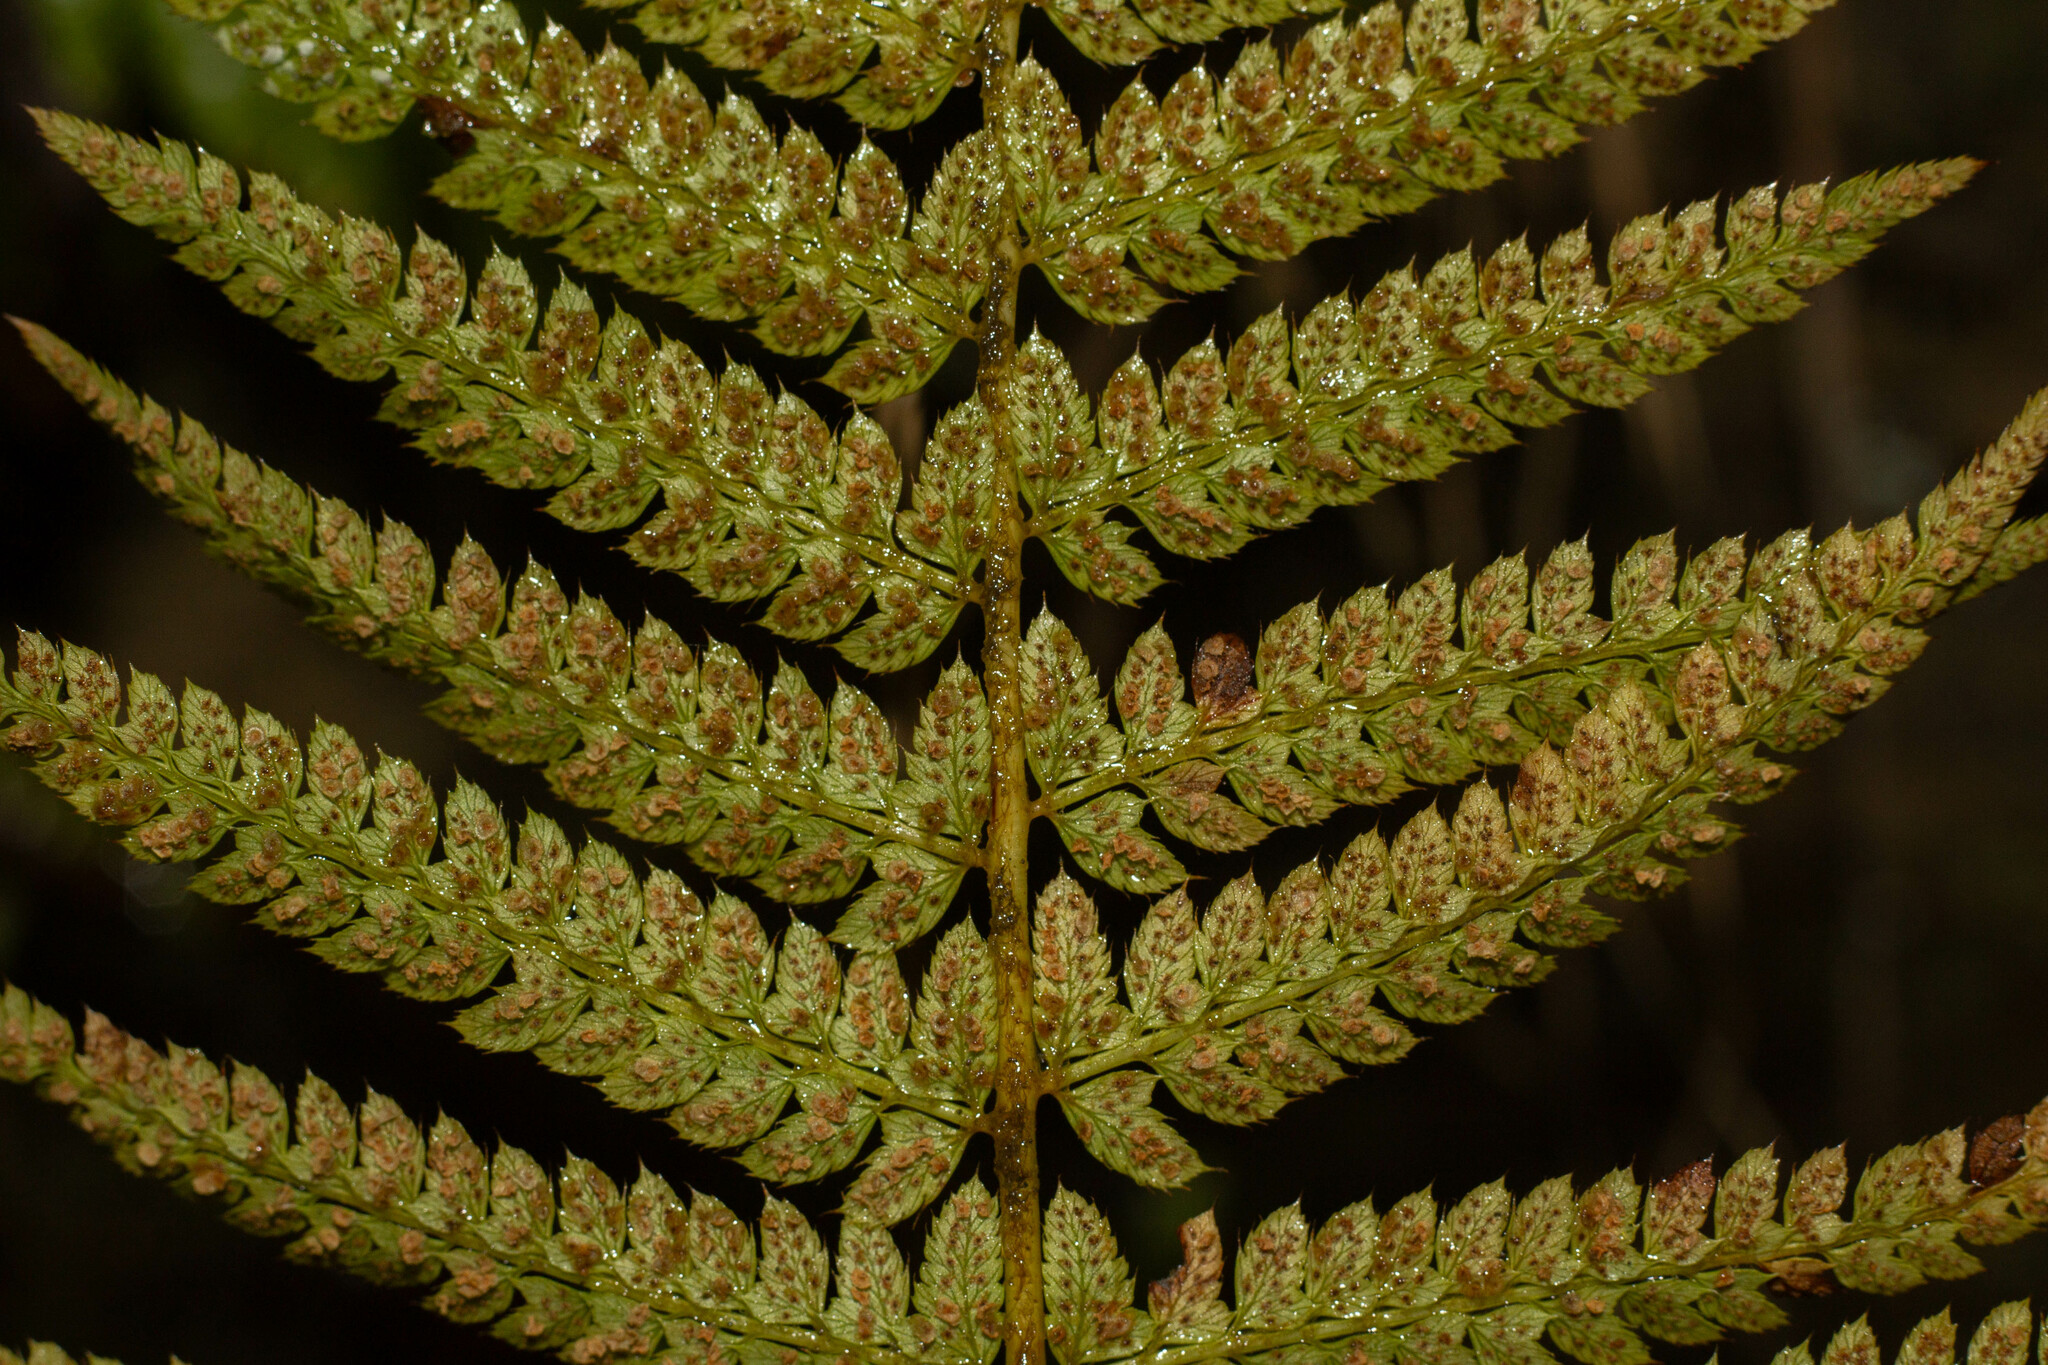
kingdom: Plantae
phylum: Tracheophyta
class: Polypodiopsida
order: Polypodiales
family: Dryopteridaceae
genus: Polystichum
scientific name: Polystichum setiferum
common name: Soft shield-fern
